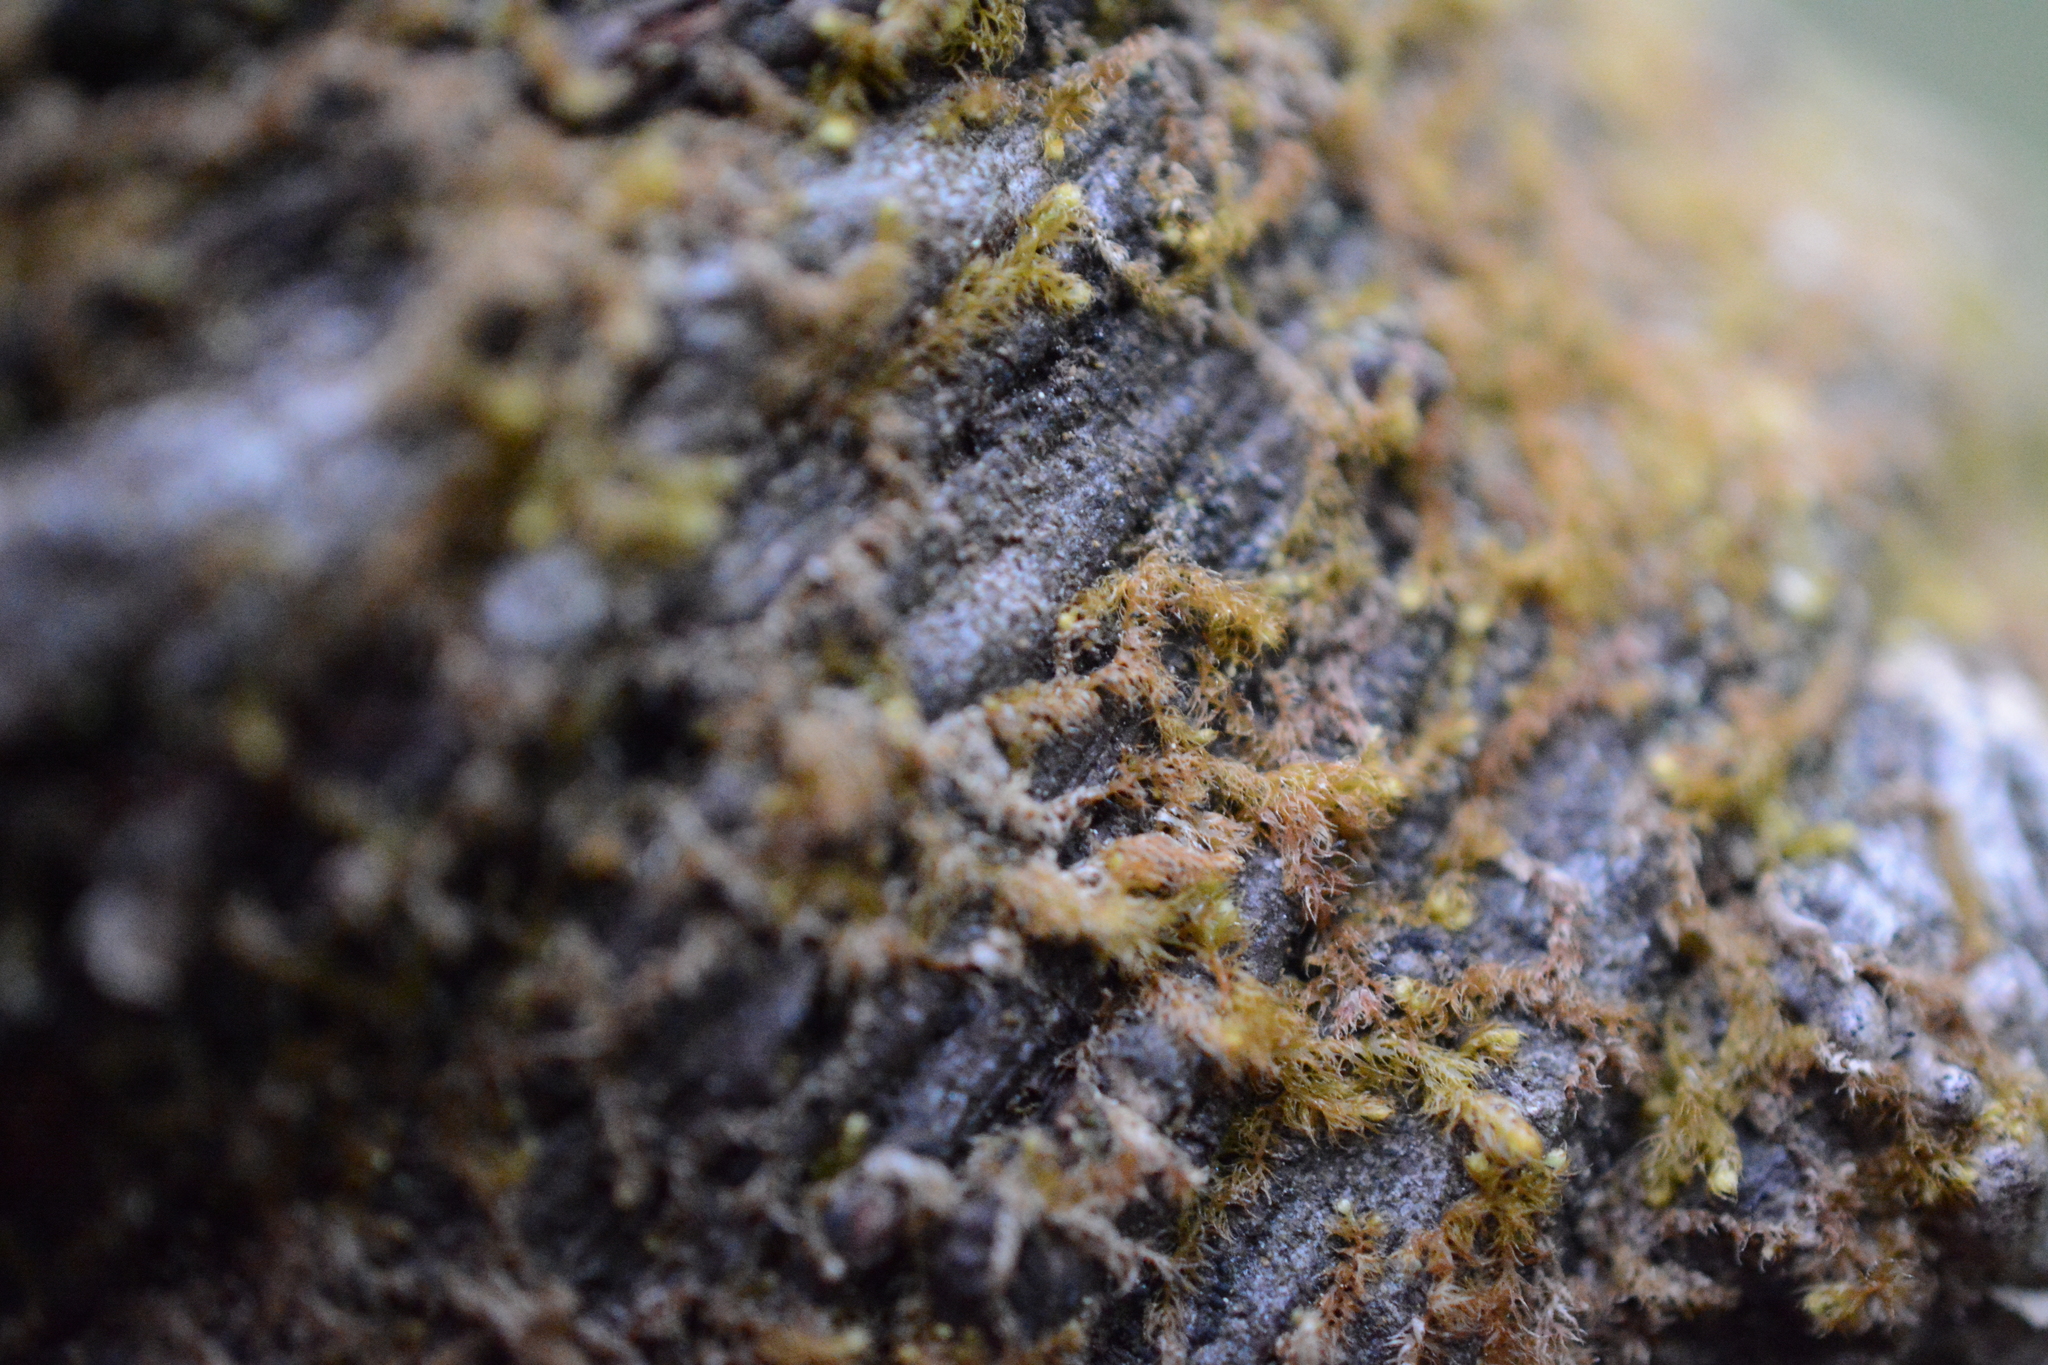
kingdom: Plantae
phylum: Marchantiophyta
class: Jungermanniopsida
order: Ptilidiales
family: Ptilidiaceae
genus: Ptilidium
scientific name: Ptilidium californicum
